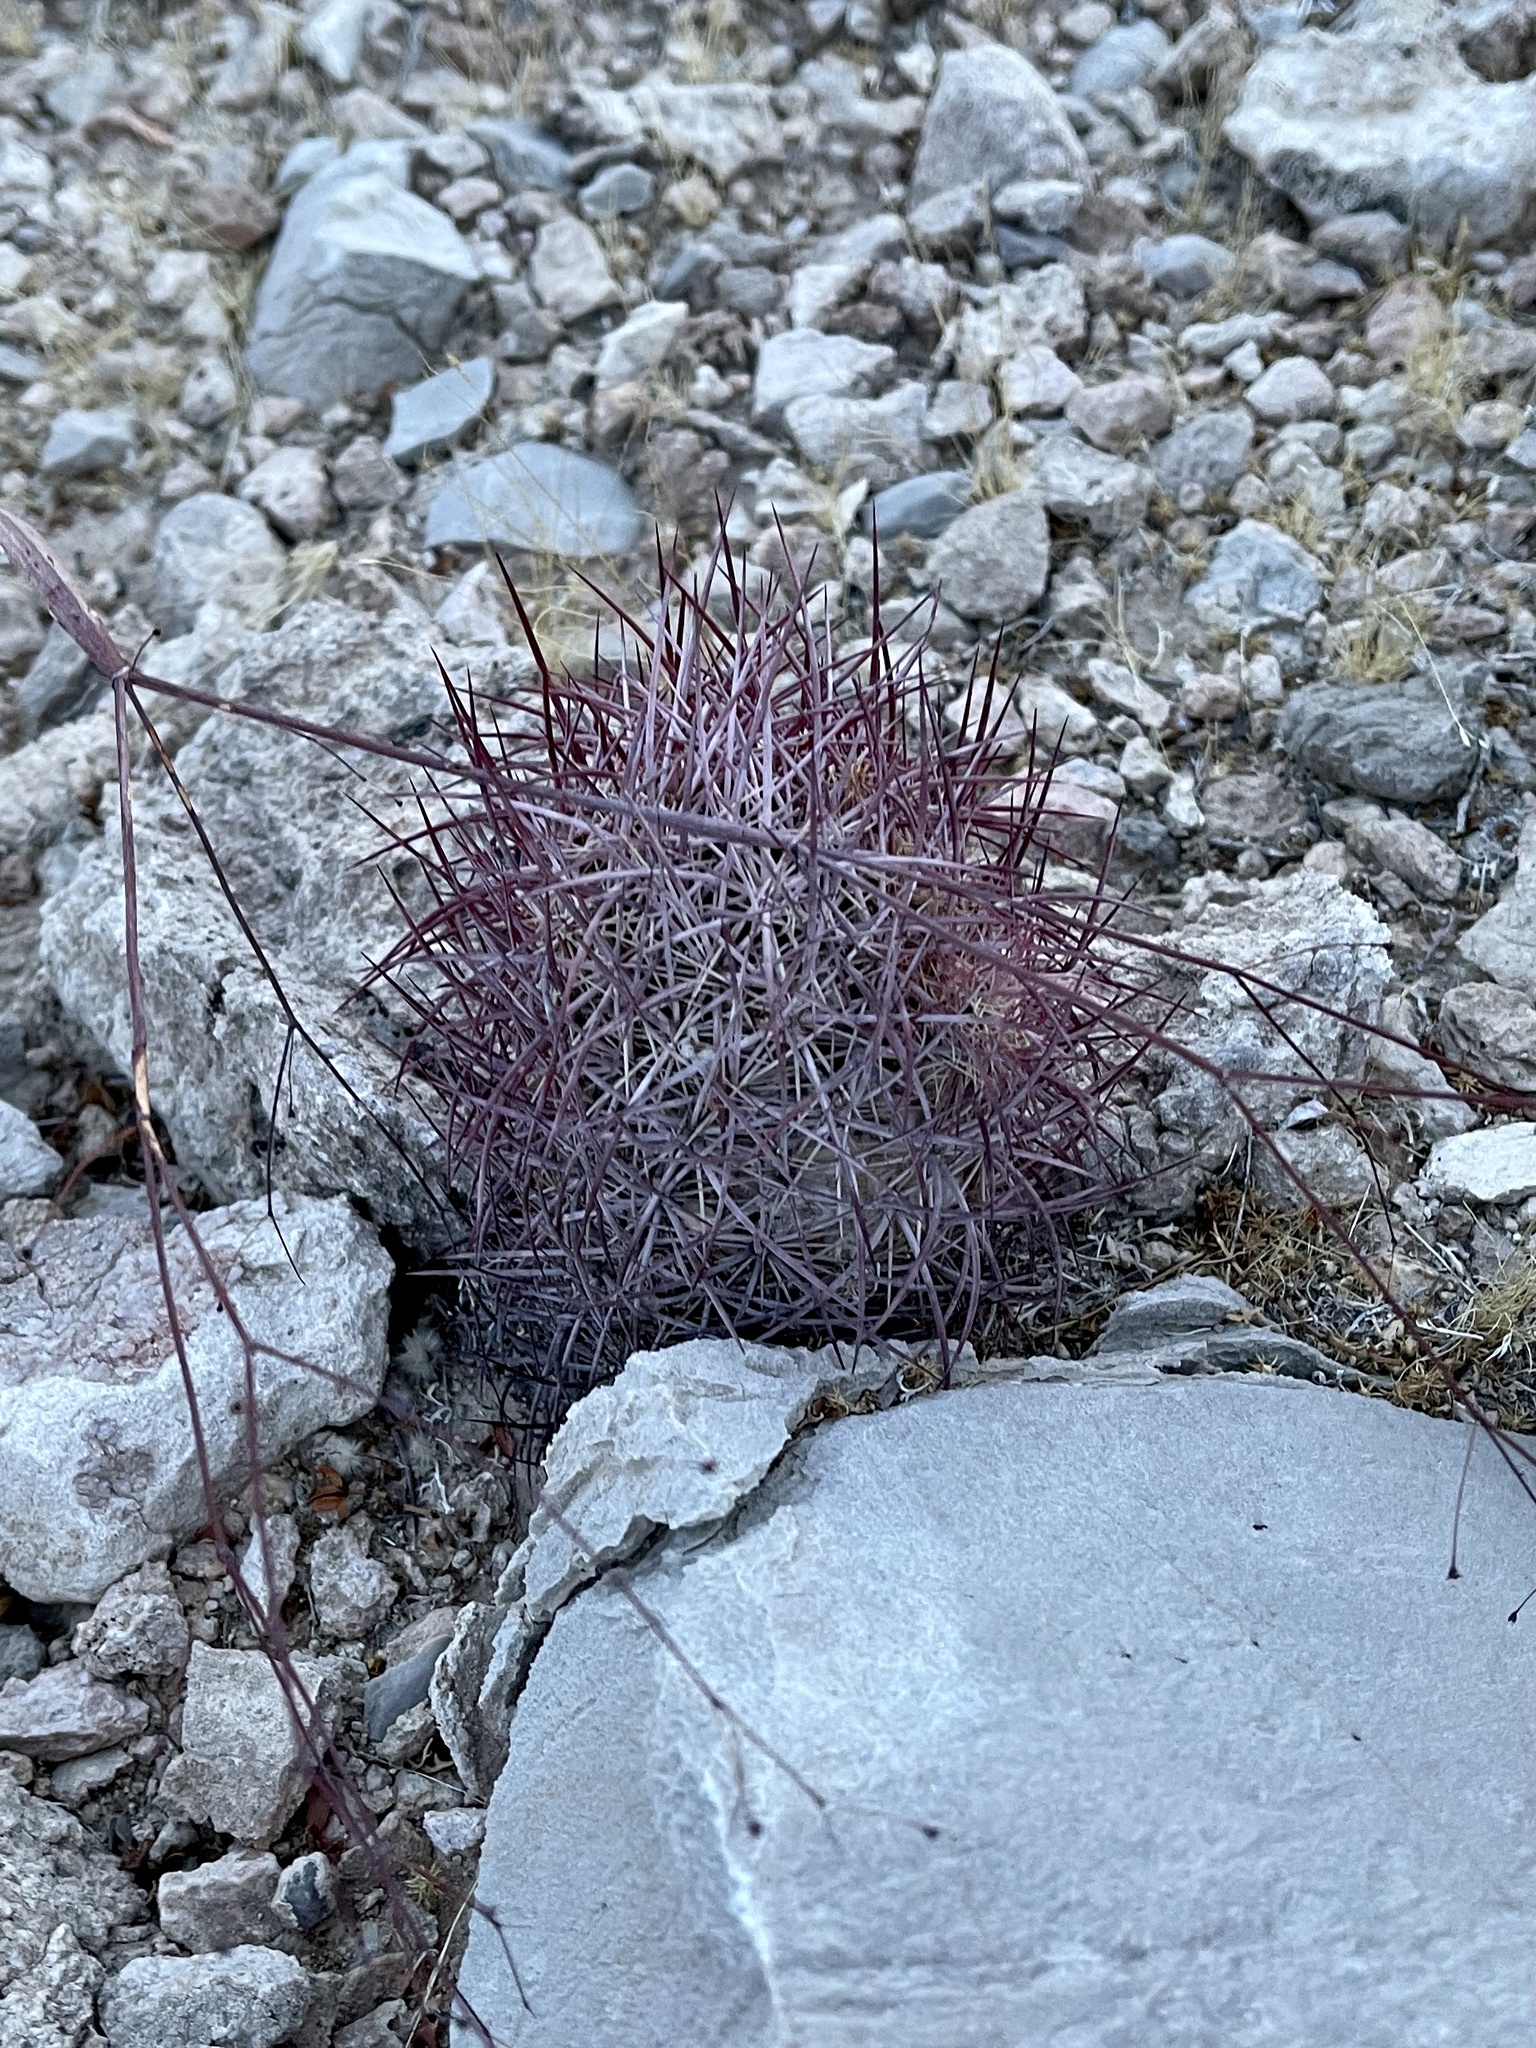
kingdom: Plantae
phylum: Tracheophyta
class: Magnoliopsida
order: Caryophyllales
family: Cactaceae
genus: Sclerocactus
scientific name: Sclerocactus johnsonii
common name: Eight-spine fishhook cactus
